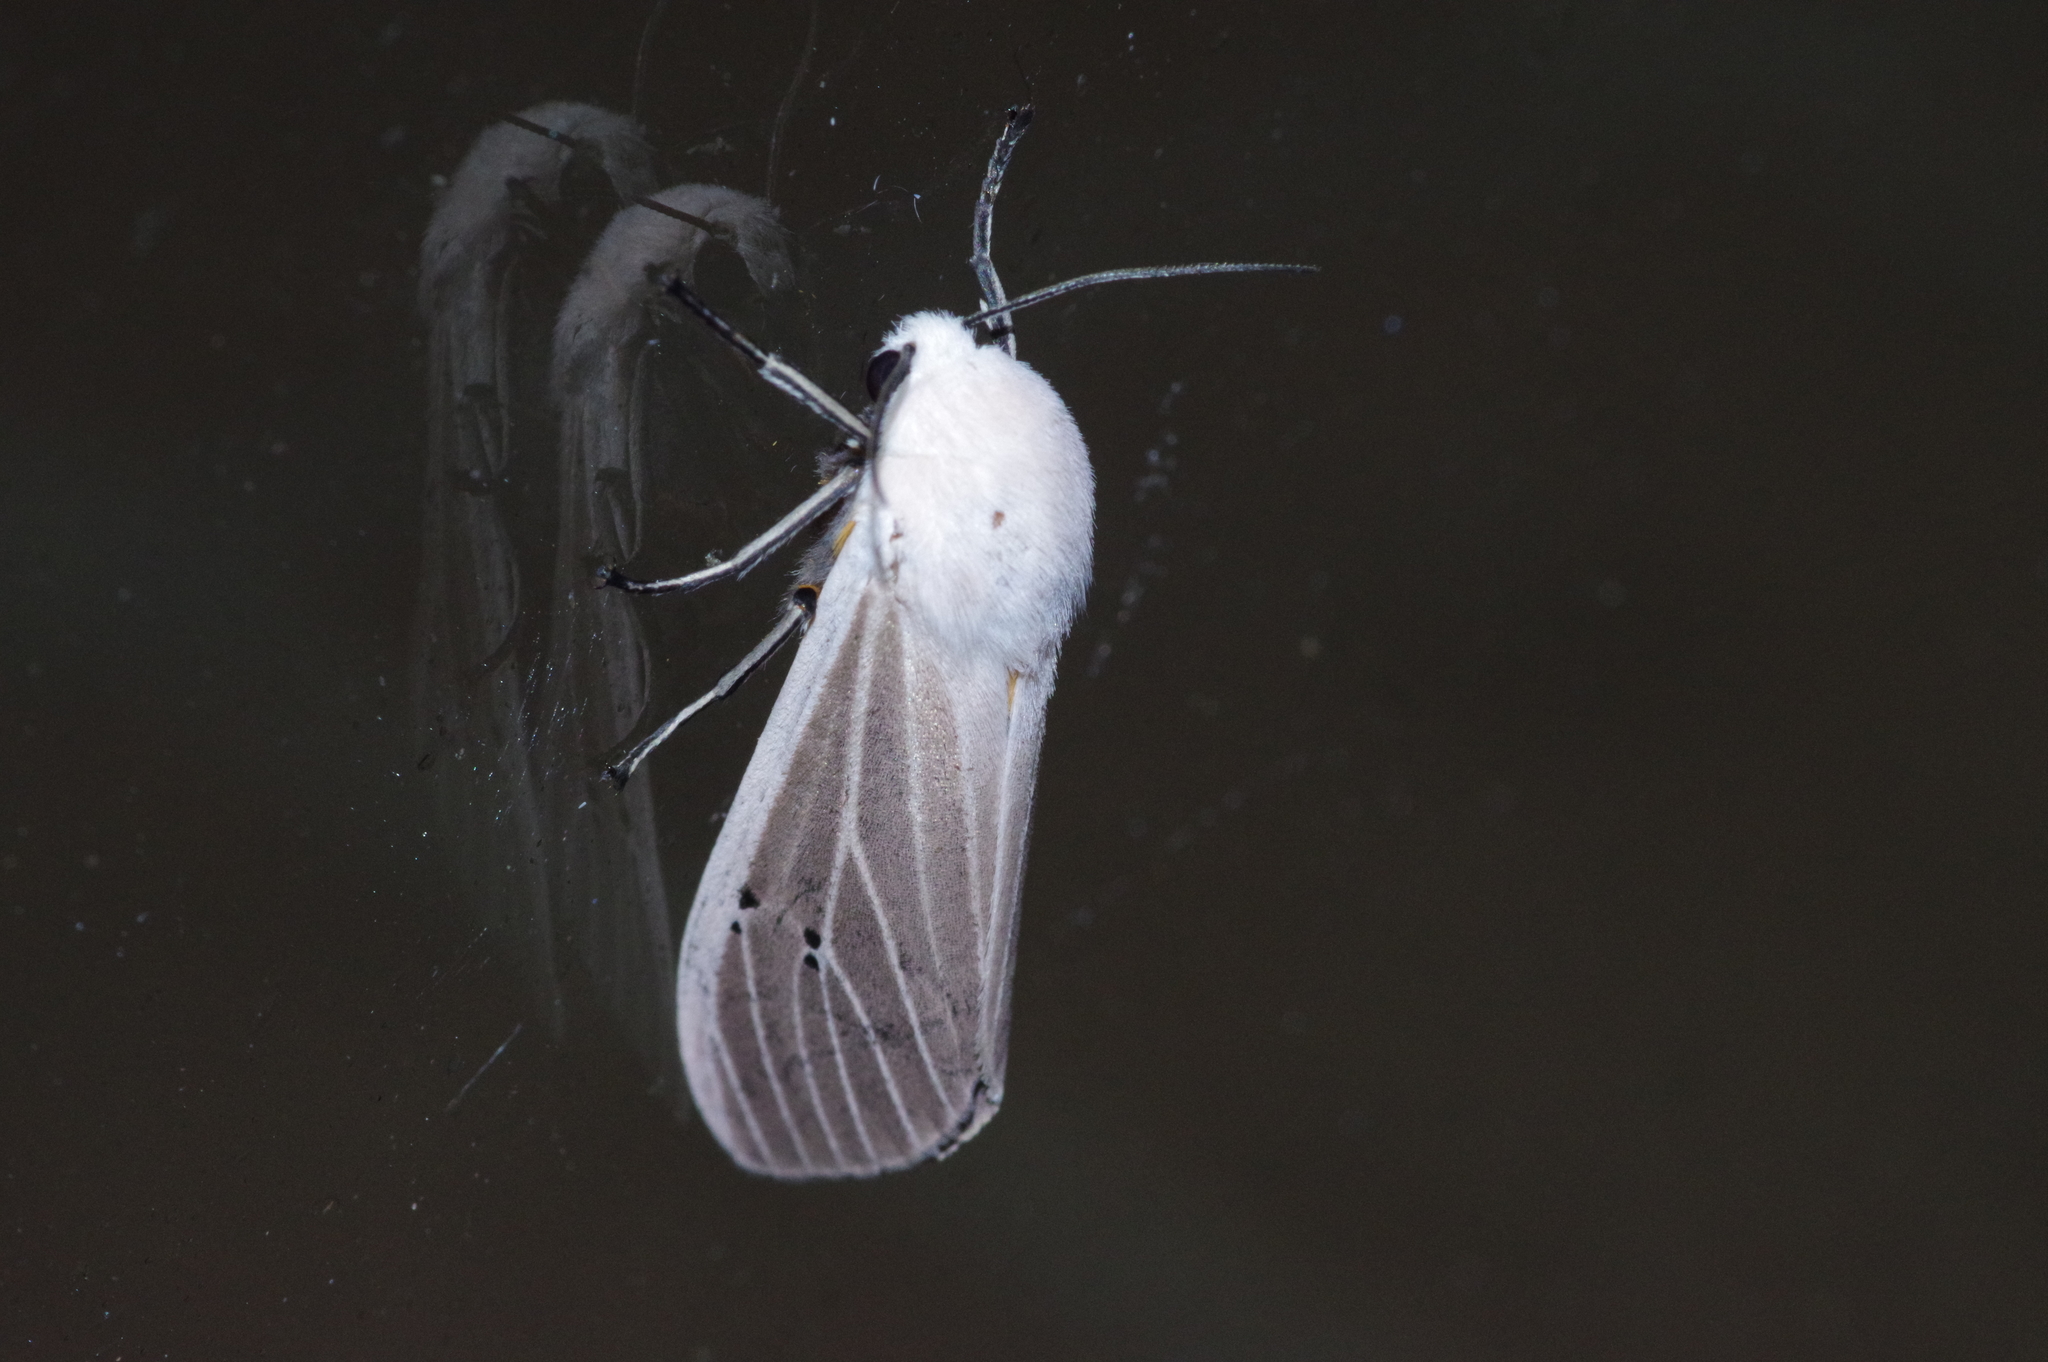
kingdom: Animalia
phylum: Arthropoda
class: Insecta
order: Lepidoptera
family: Erebidae
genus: Creatonotos
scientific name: Creatonotos transiens
